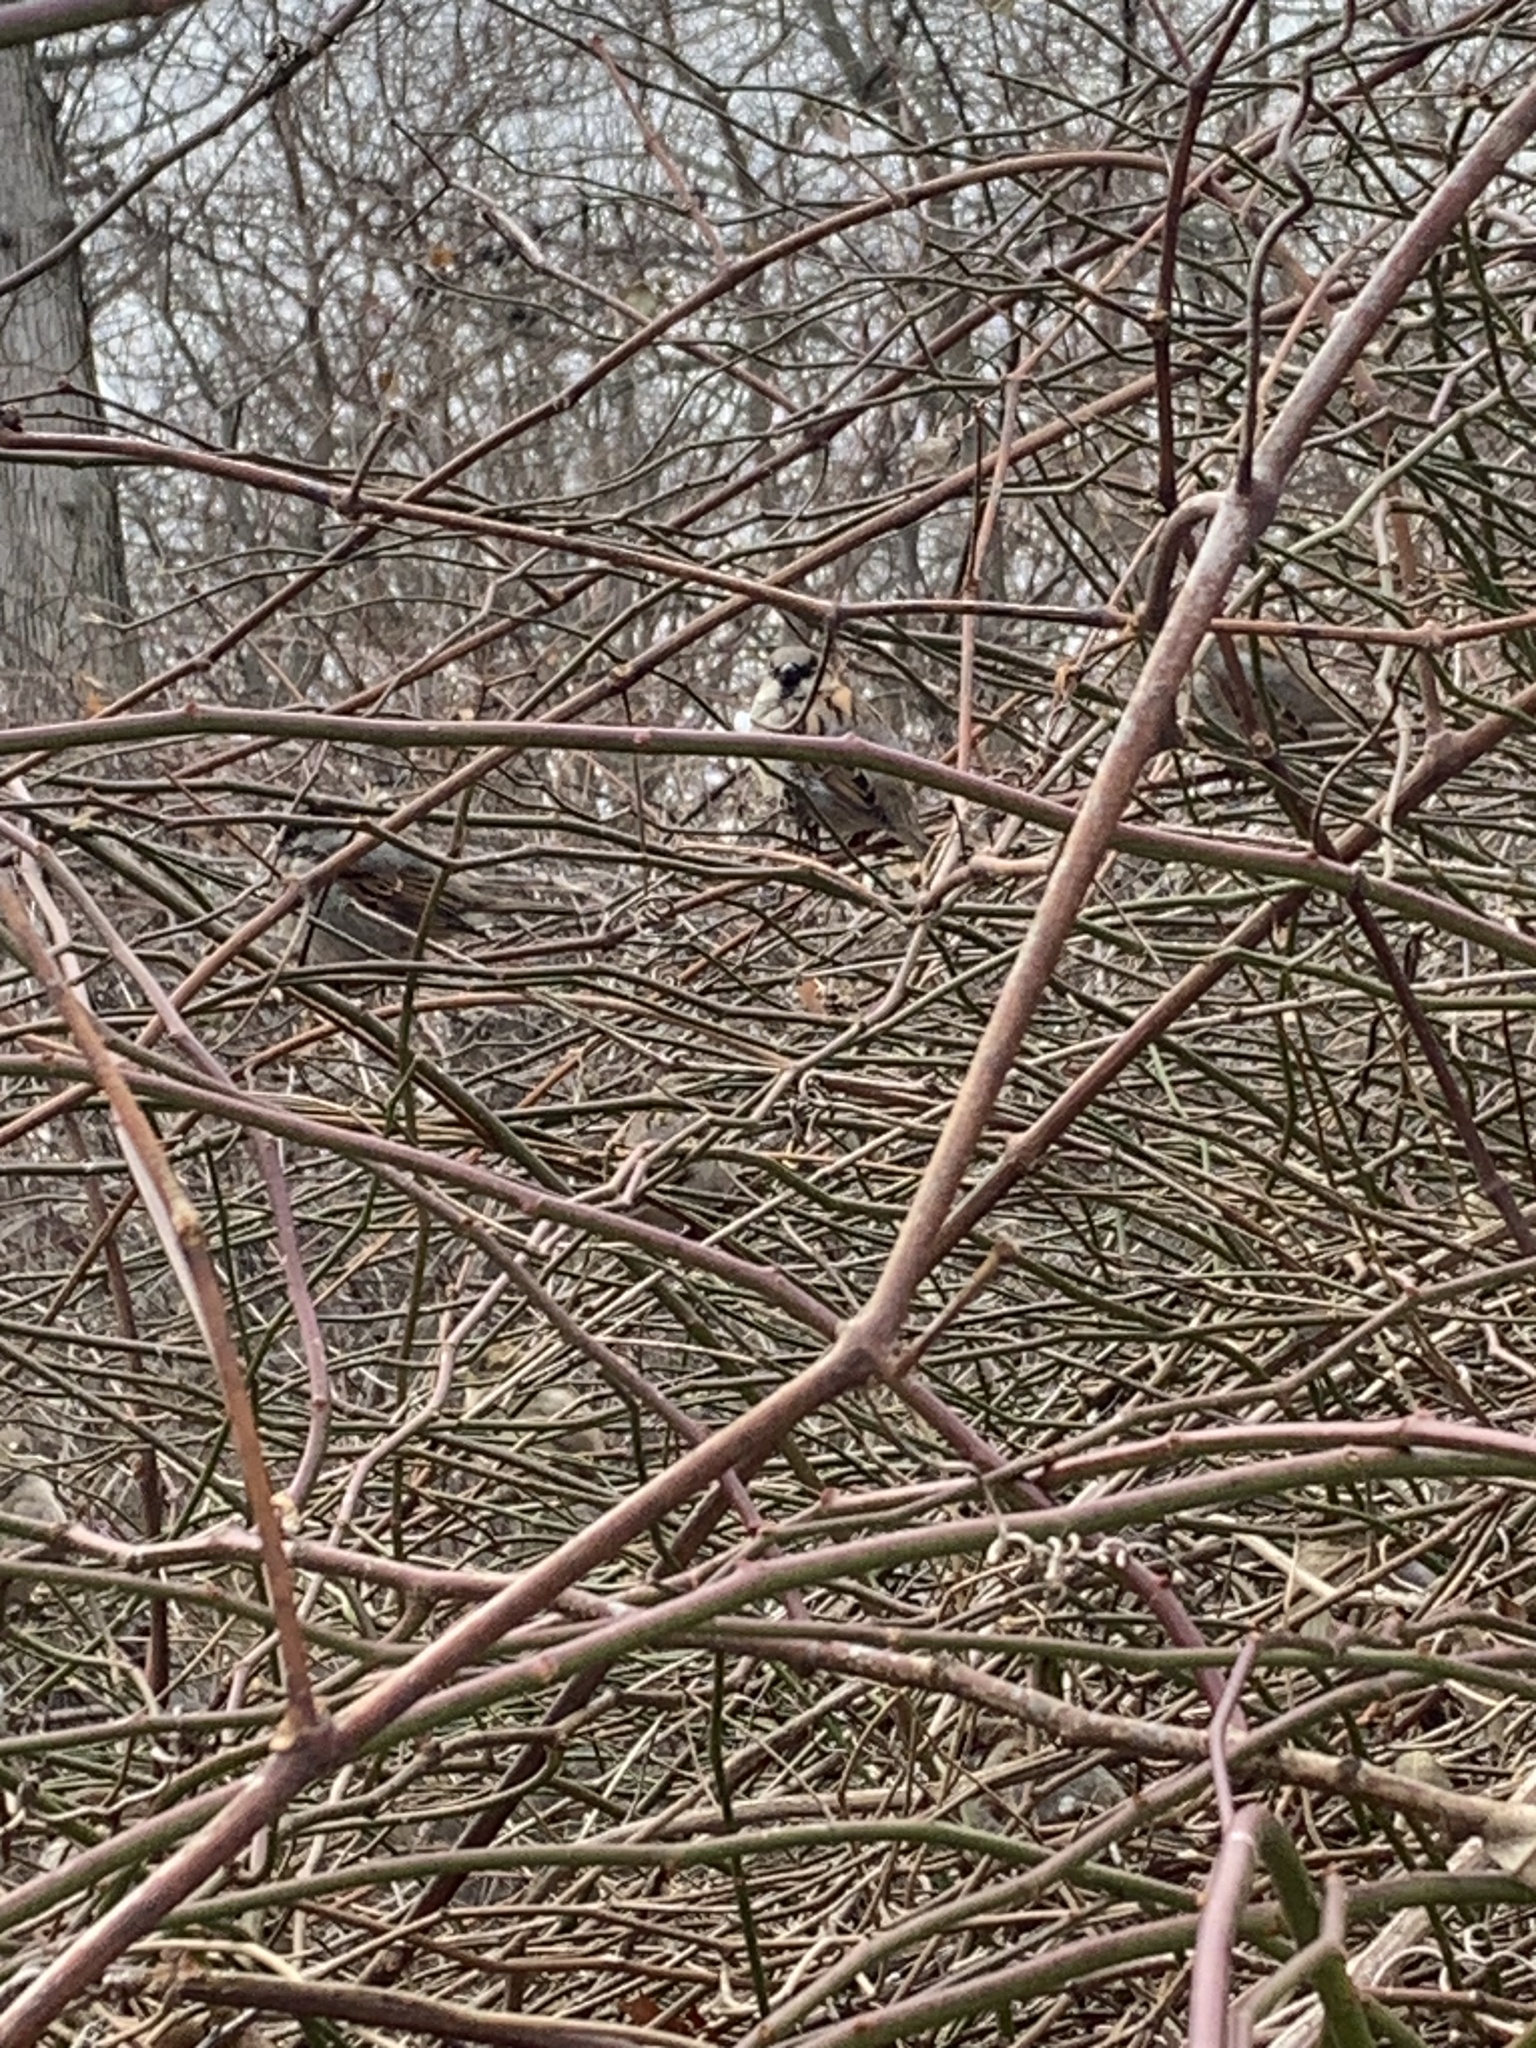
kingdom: Animalia
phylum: Chordata
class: Aves
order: Passeriformes
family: Passeridae
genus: Passer
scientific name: Passer domesticus
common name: House sparrow
